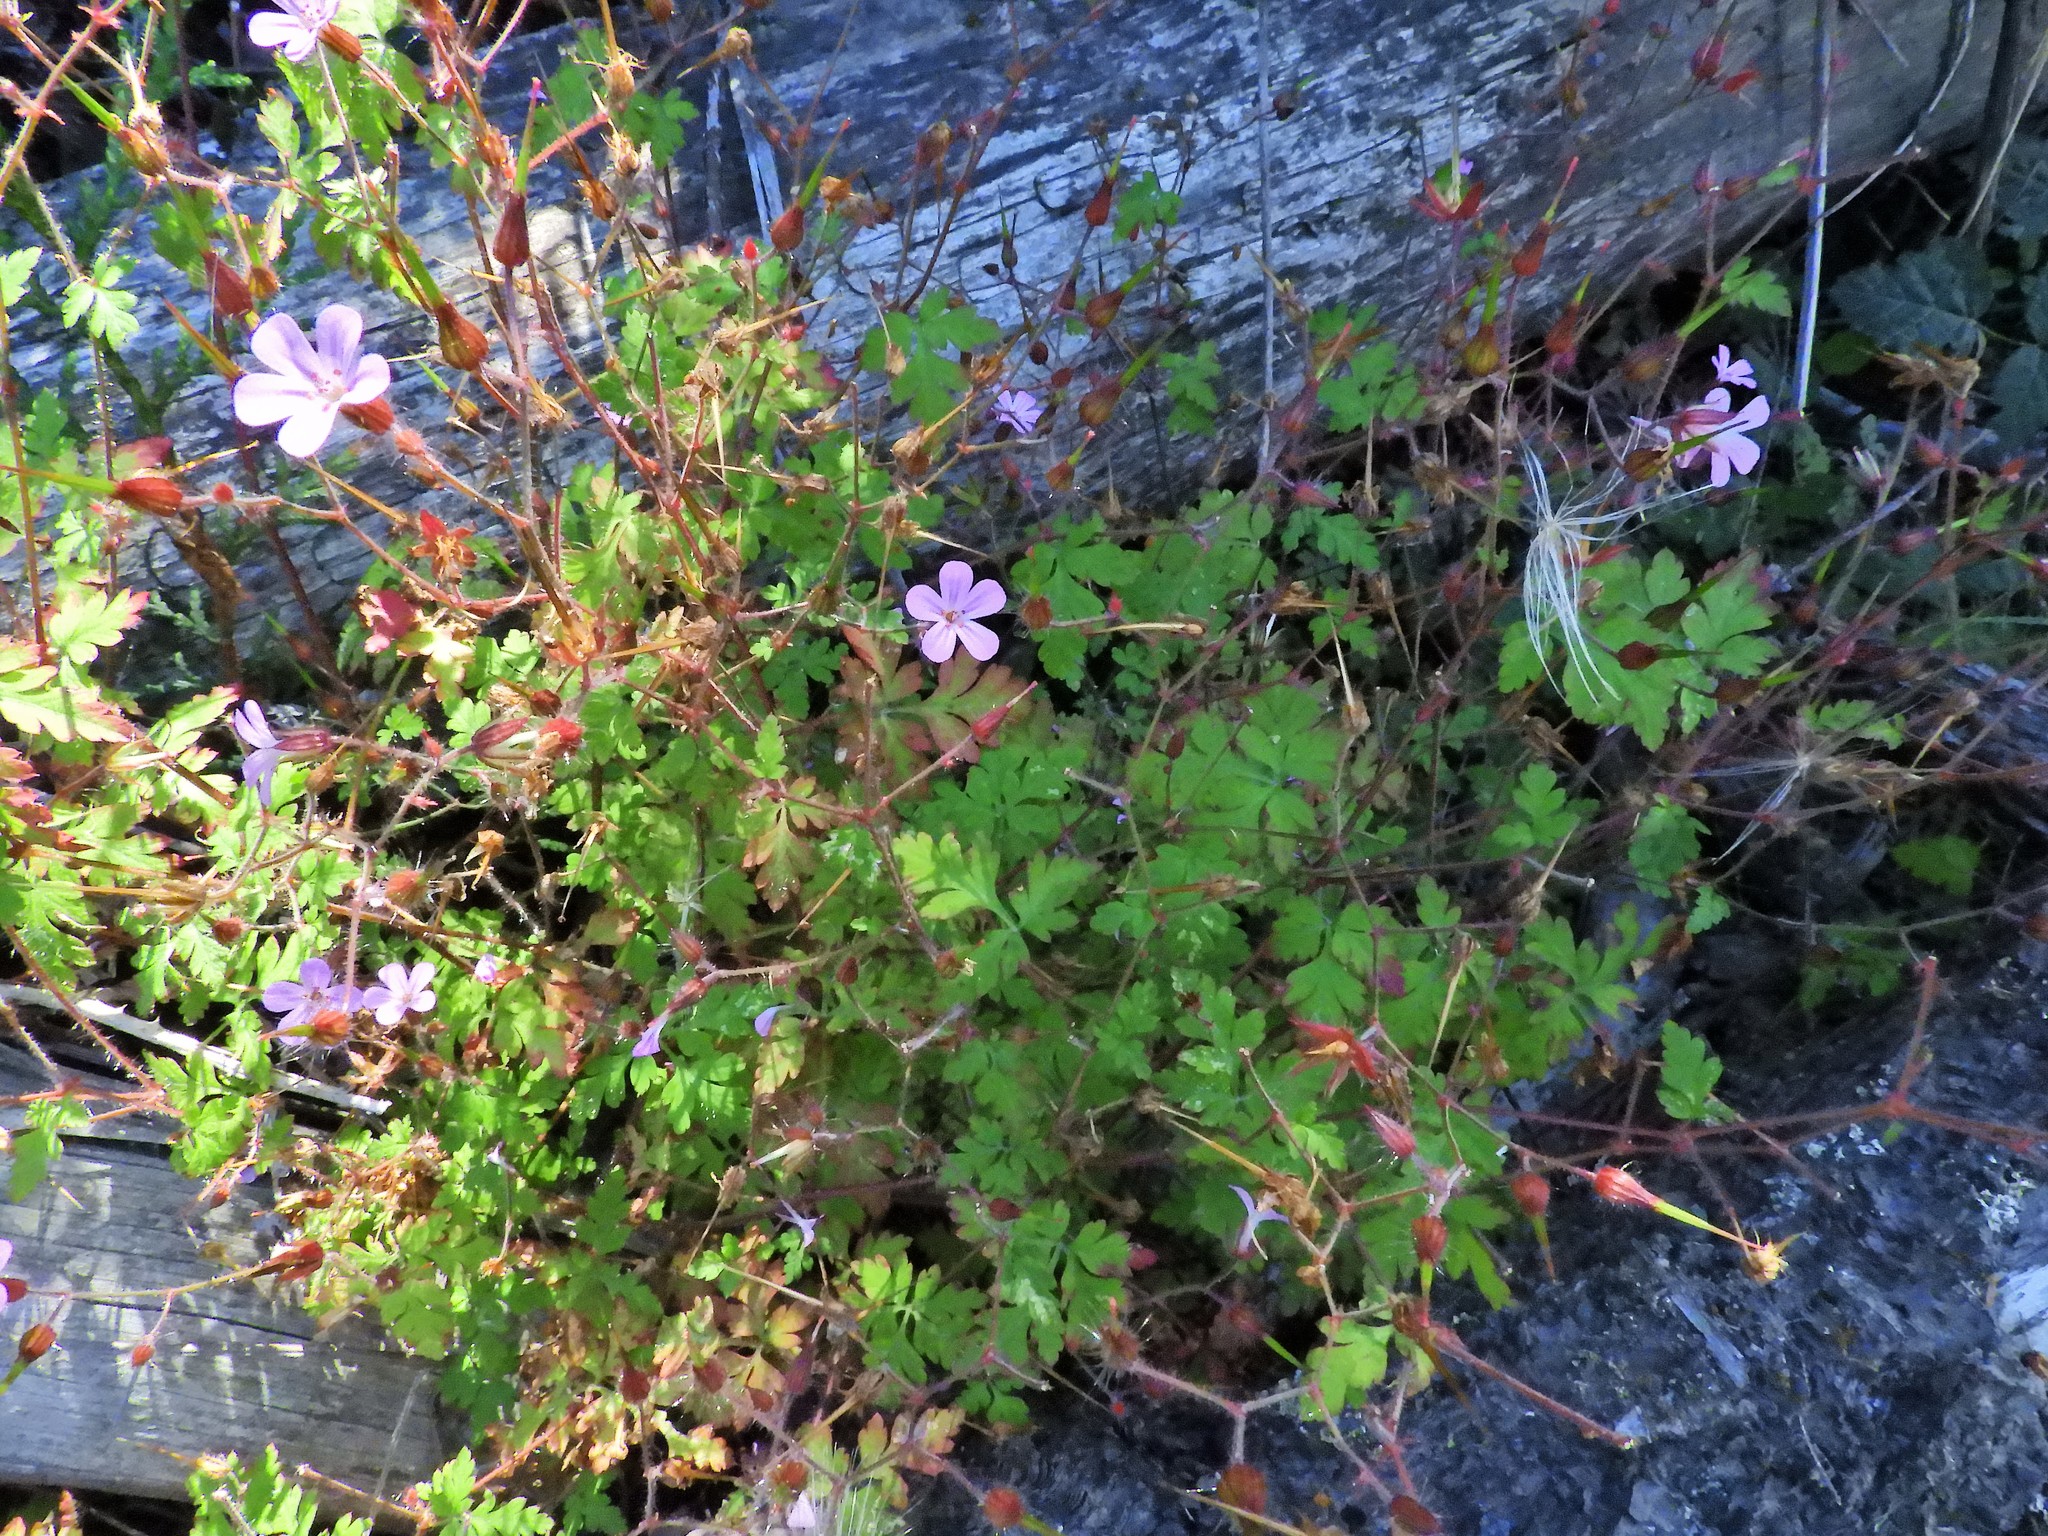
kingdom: Plantae
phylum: Tracheophyta
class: Magnoliopsida
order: Geraniales
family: Geraniaceae
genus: Geranium
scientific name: Geranium robertianum
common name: Herb-robert
